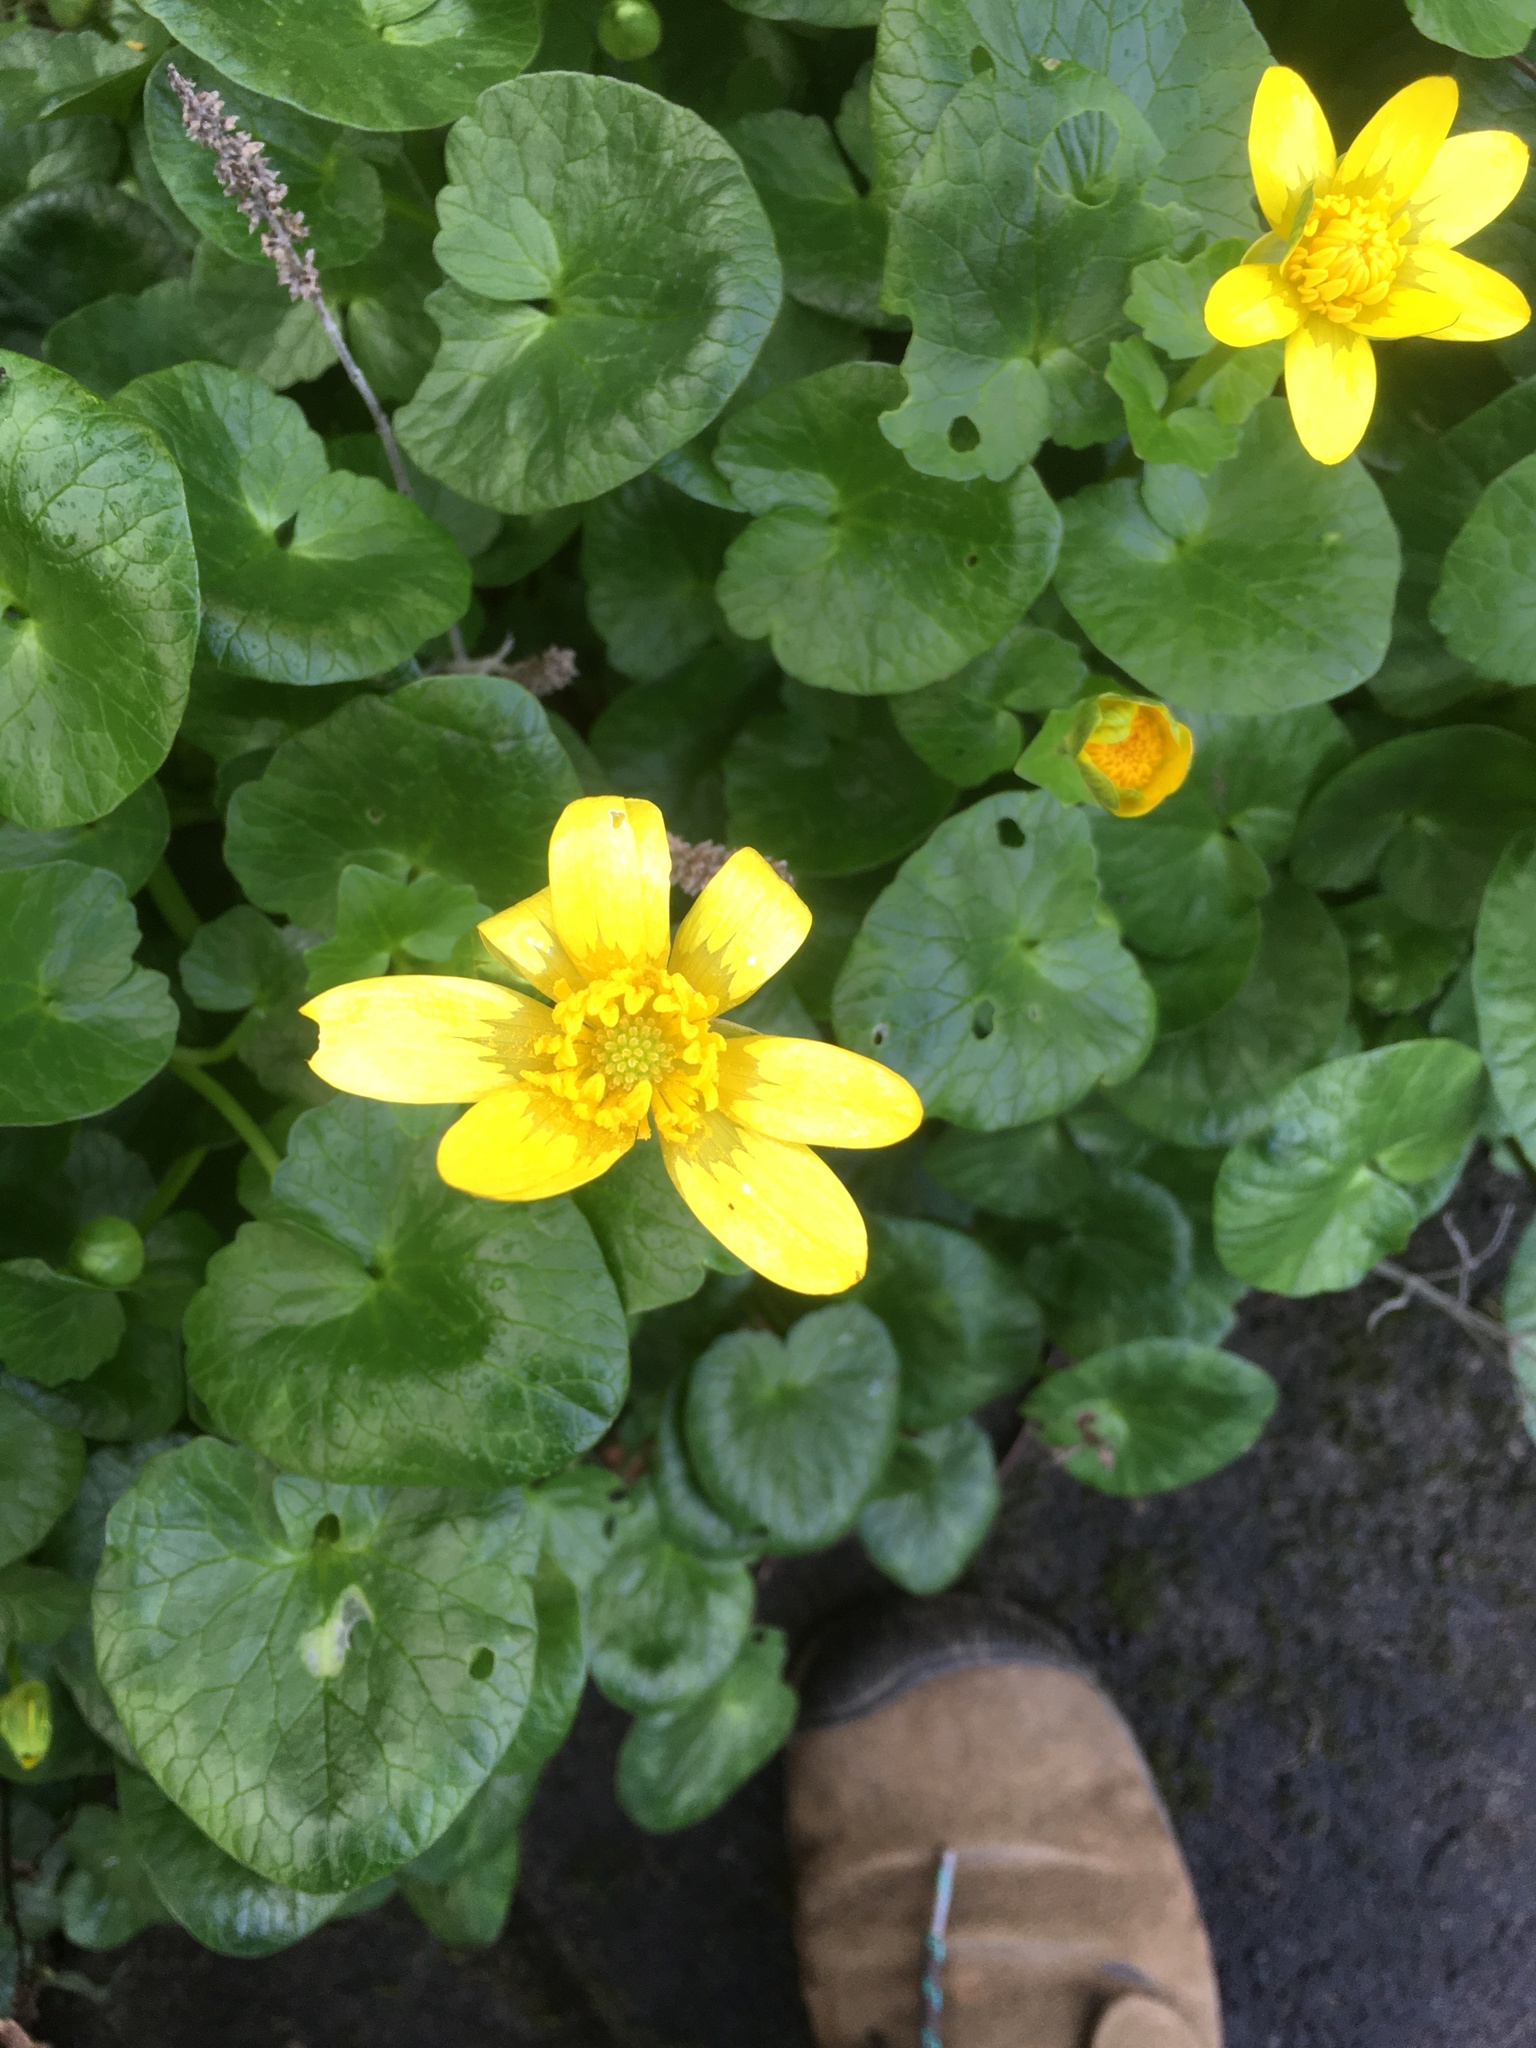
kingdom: Plantae
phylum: Tracheophyta
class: Magnoliopsida
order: Ranunculales
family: Ranunculaceae
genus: Ficaria
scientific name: Ficaria verna
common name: Lesser celandine
